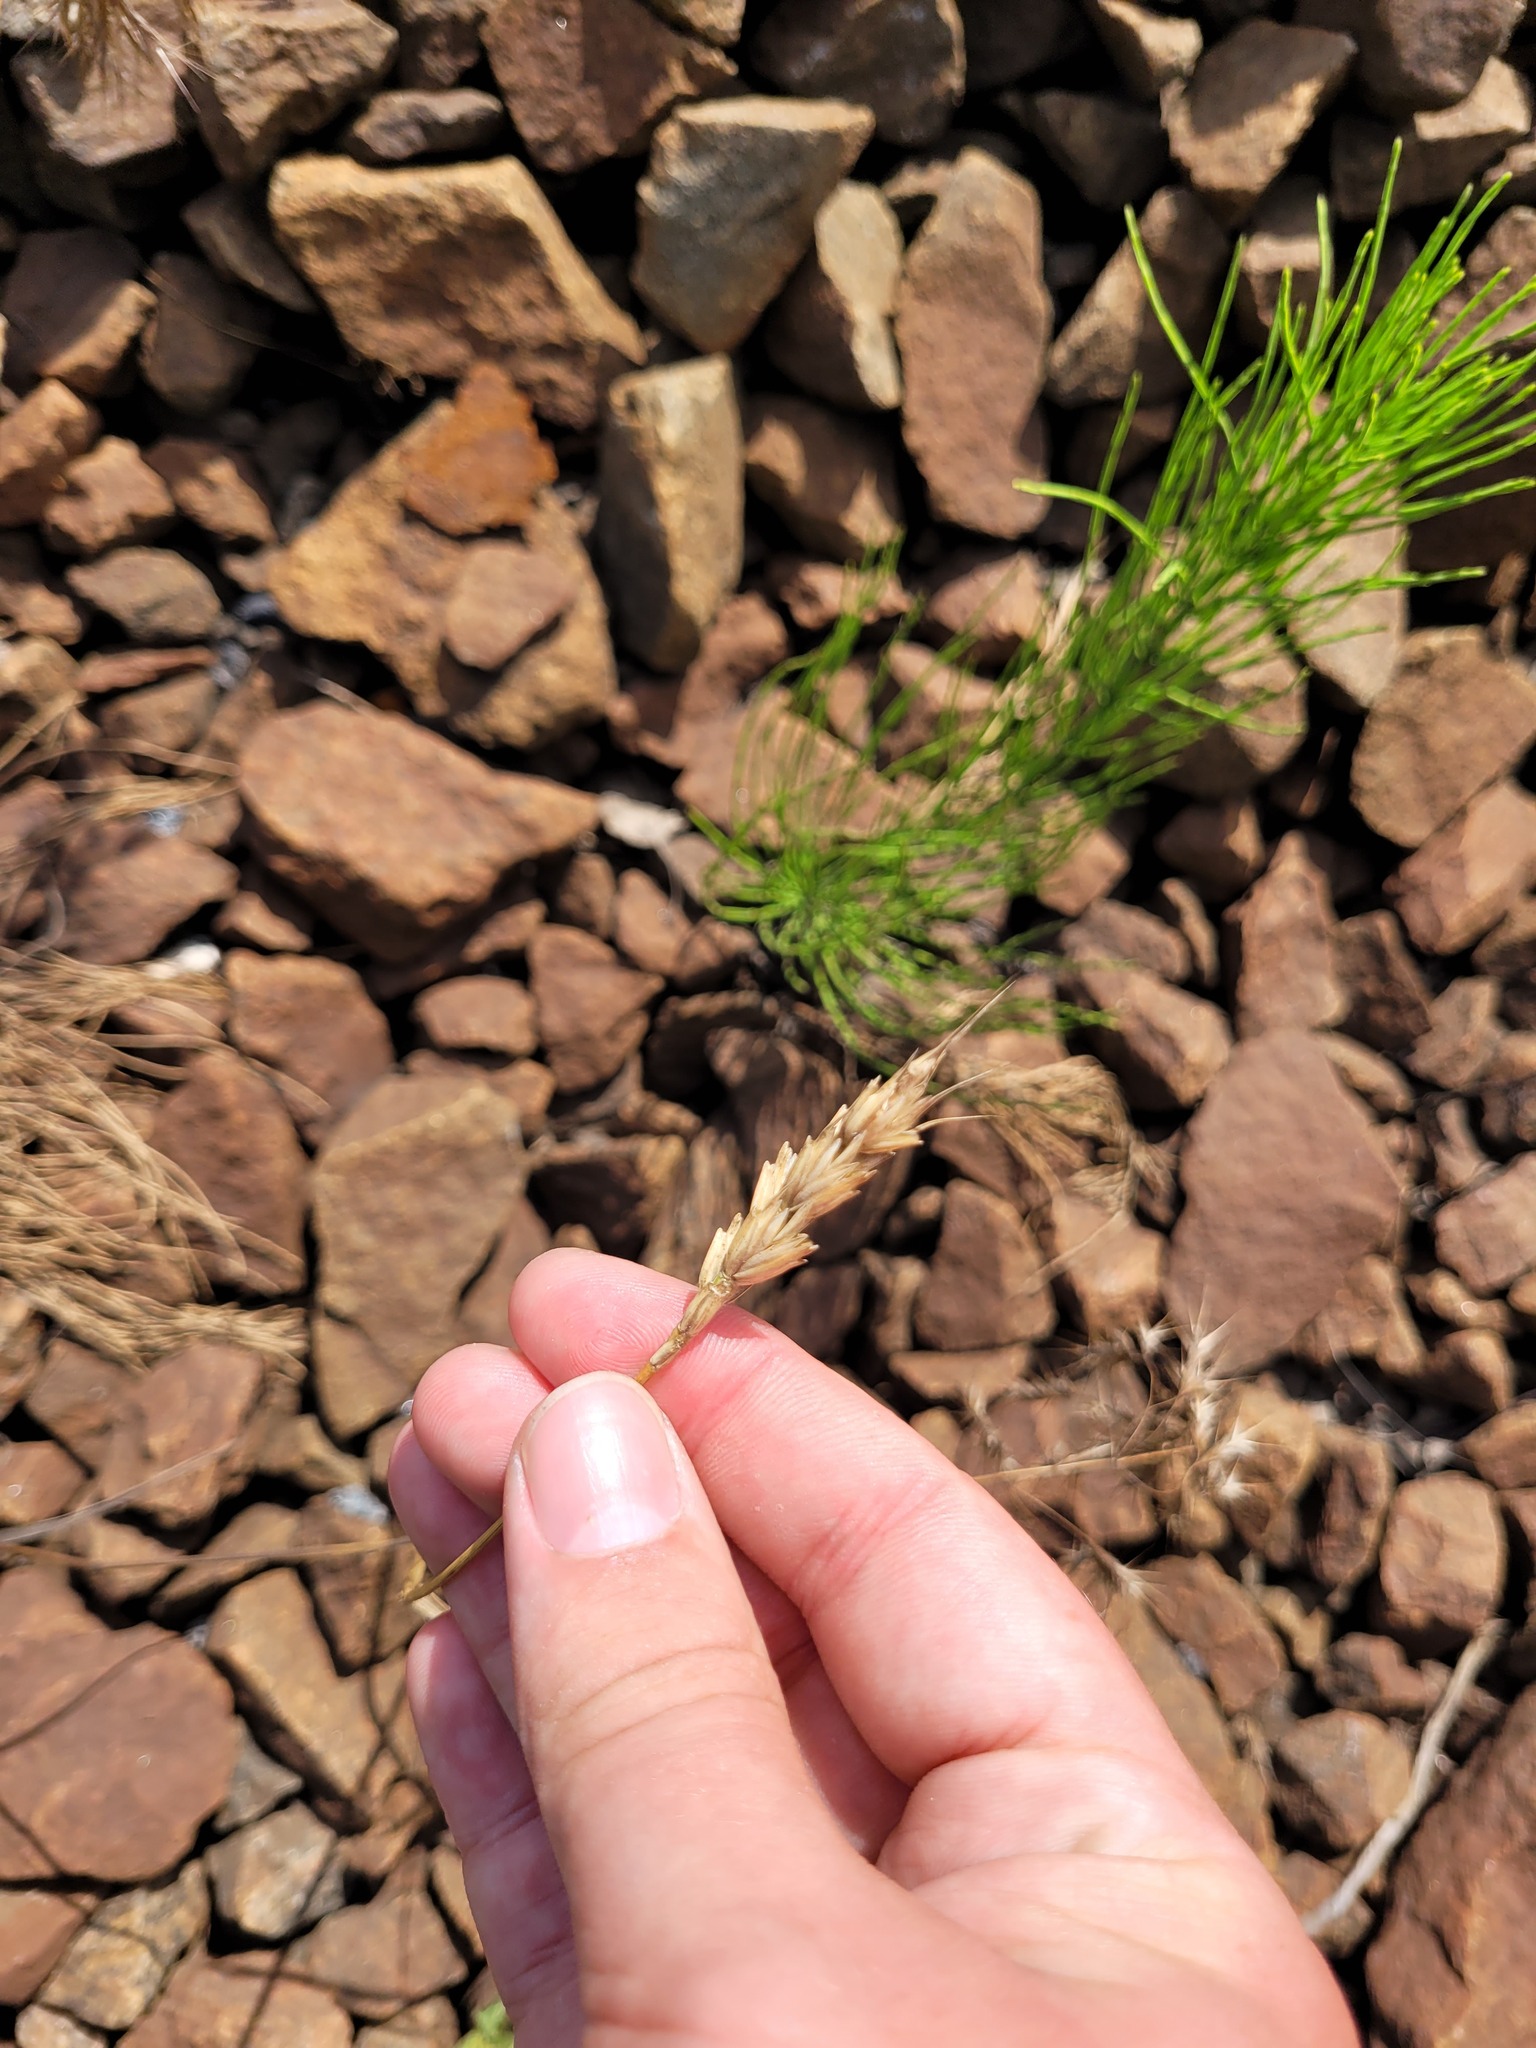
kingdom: Plantae
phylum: Tracheophyta
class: Liliopsida
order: Poales
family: Poaceae
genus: Triticum
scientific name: Triticum aestivum
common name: Common wheat
